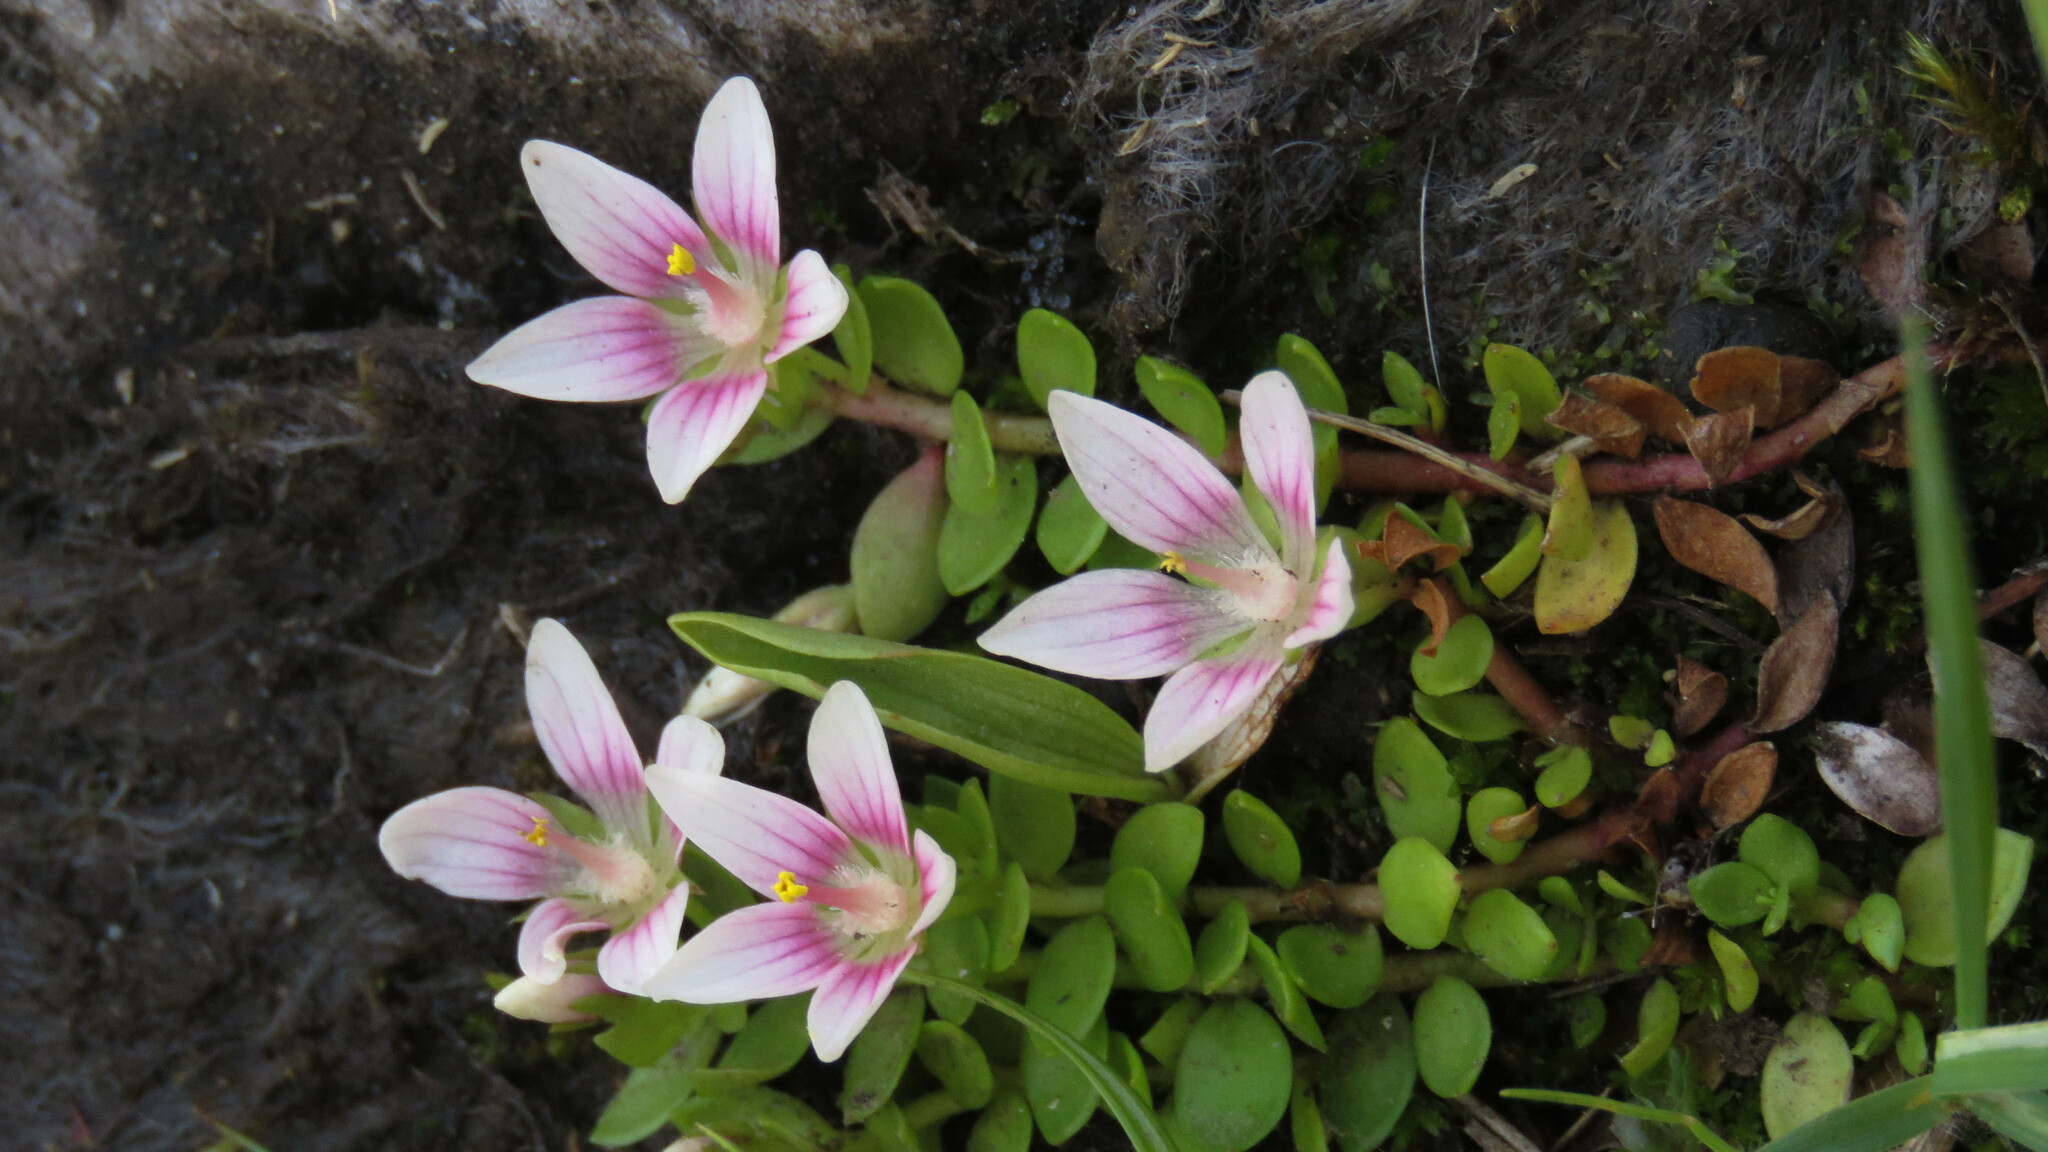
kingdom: Plantae
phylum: Tracheophyta
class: Magnoliopsida
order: Ericales
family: Primulaceae
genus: Lysimachia
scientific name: Lysimachia amoena
